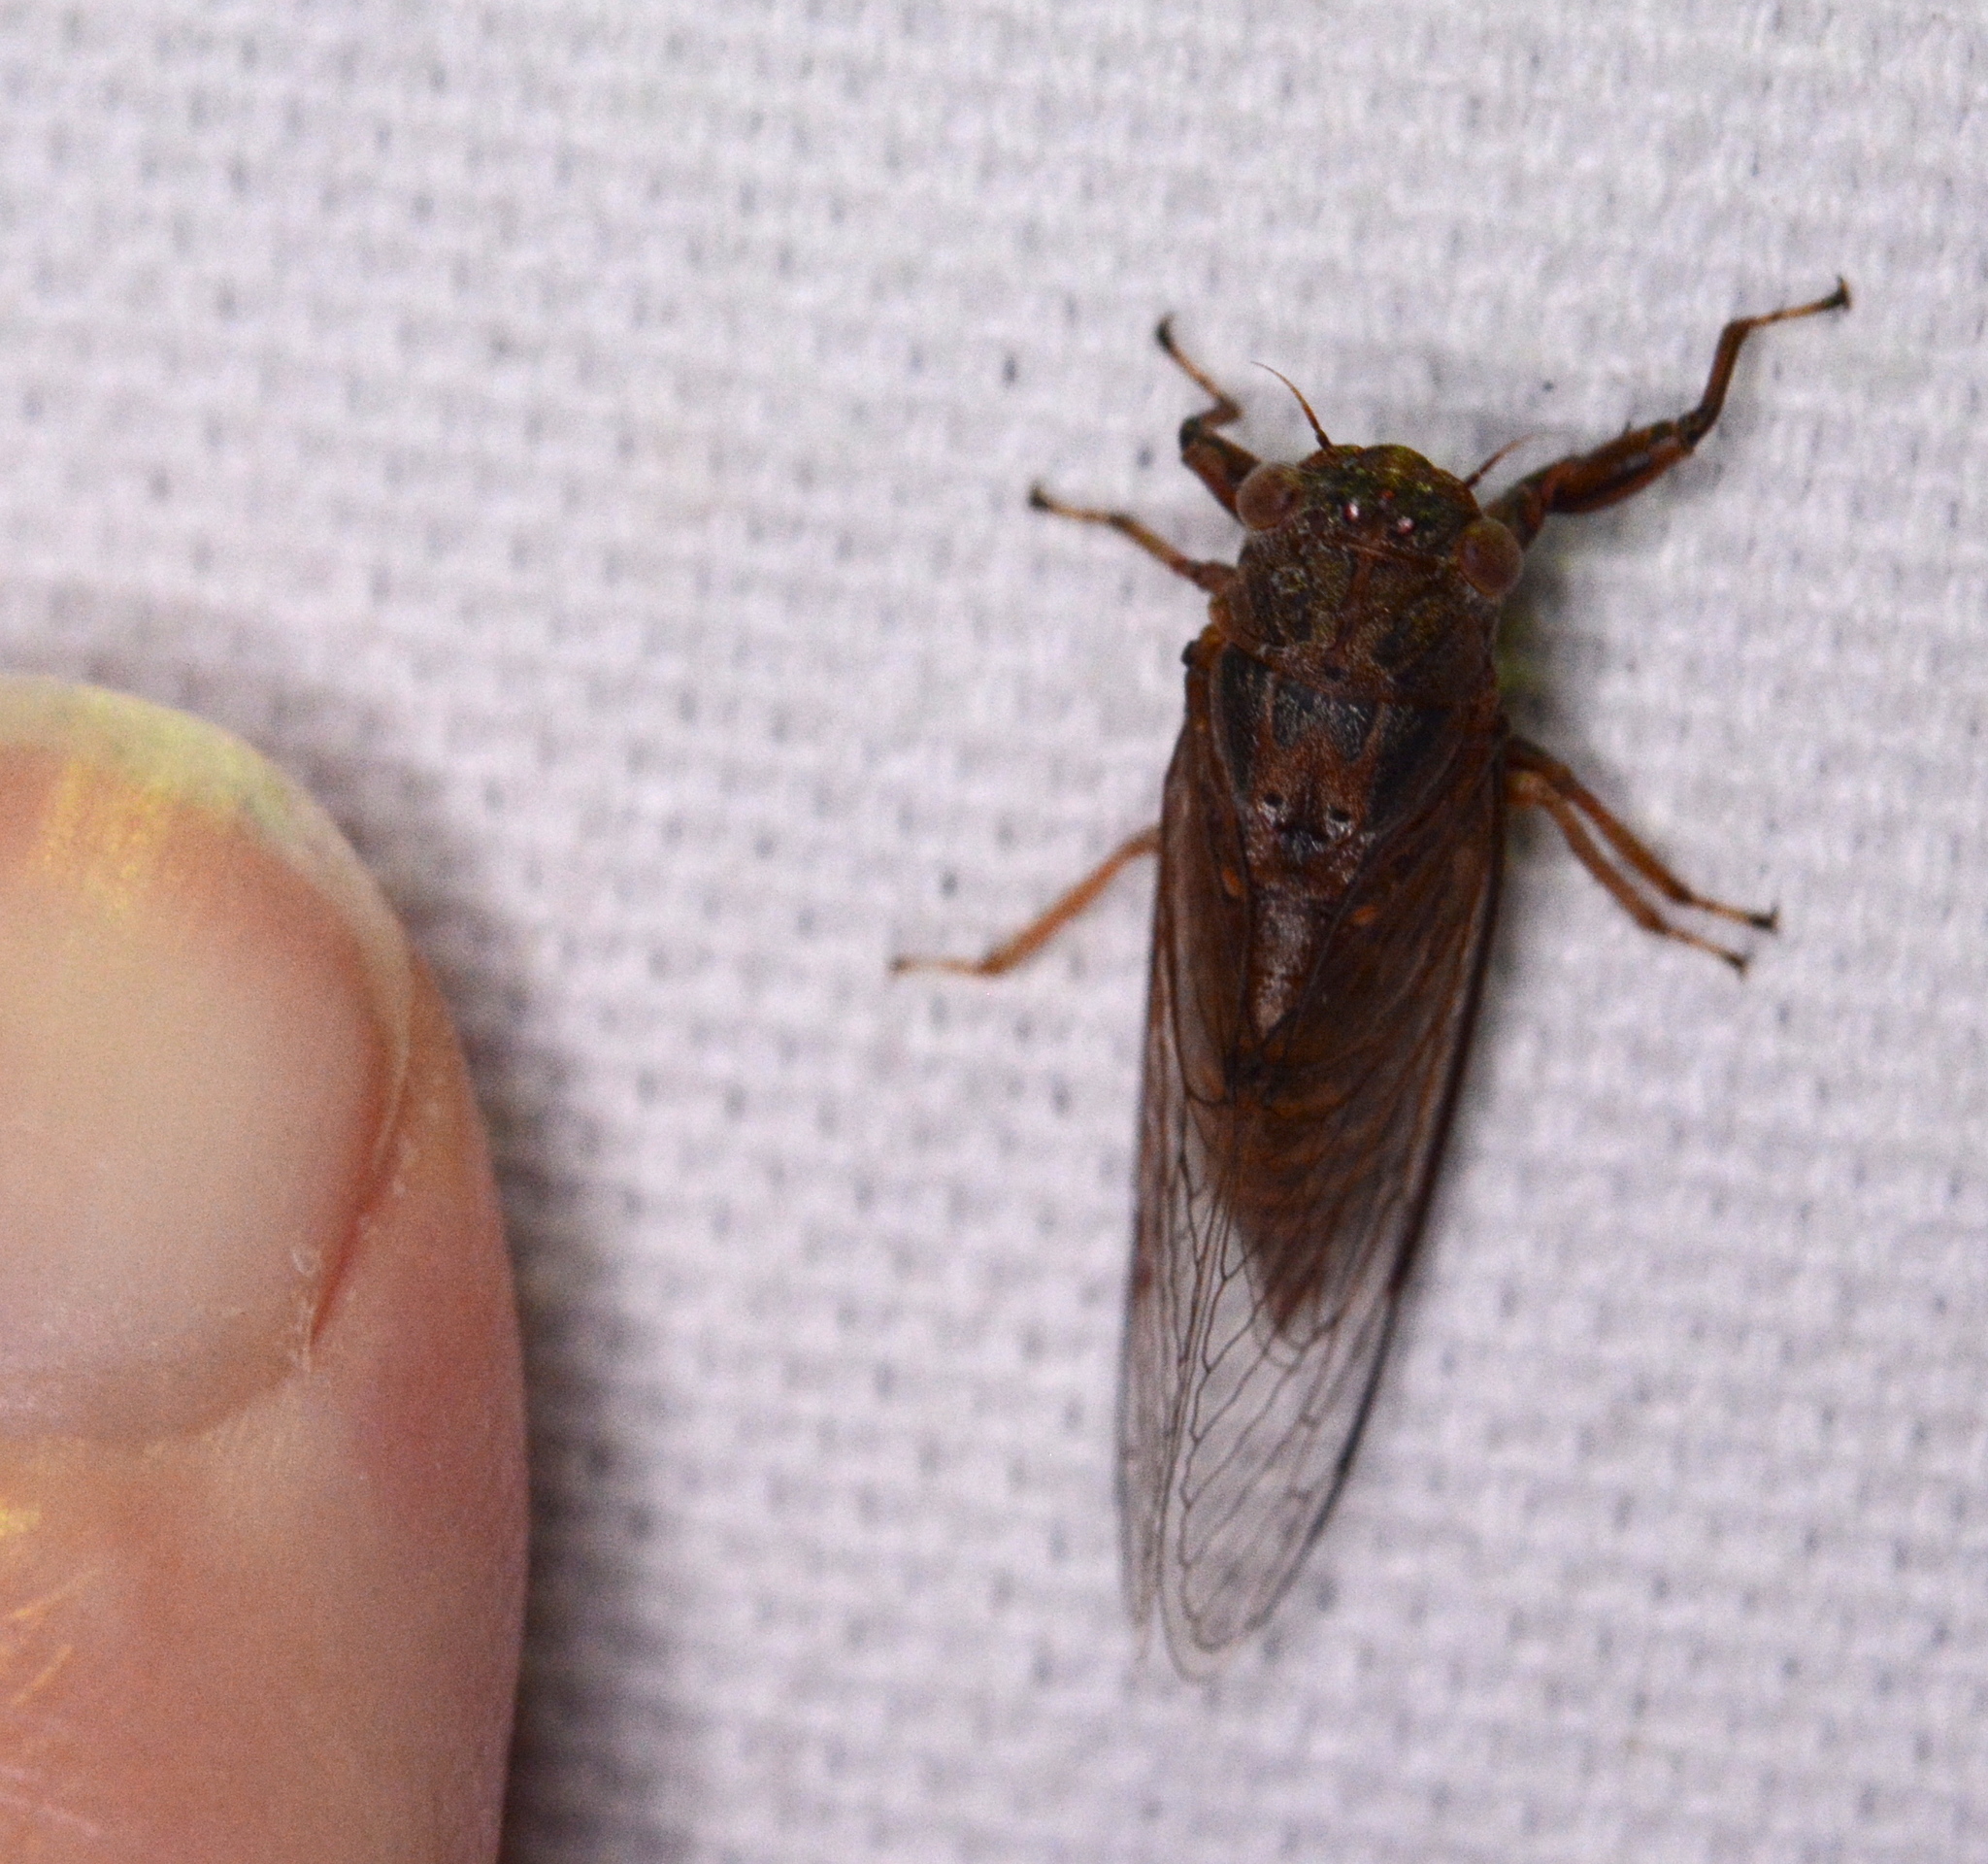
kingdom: Animalia
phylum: Arthropoda
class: Insecta
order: Hemiptera
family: Cicadidae
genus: Cicadettana
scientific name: Cicadettana calliope
